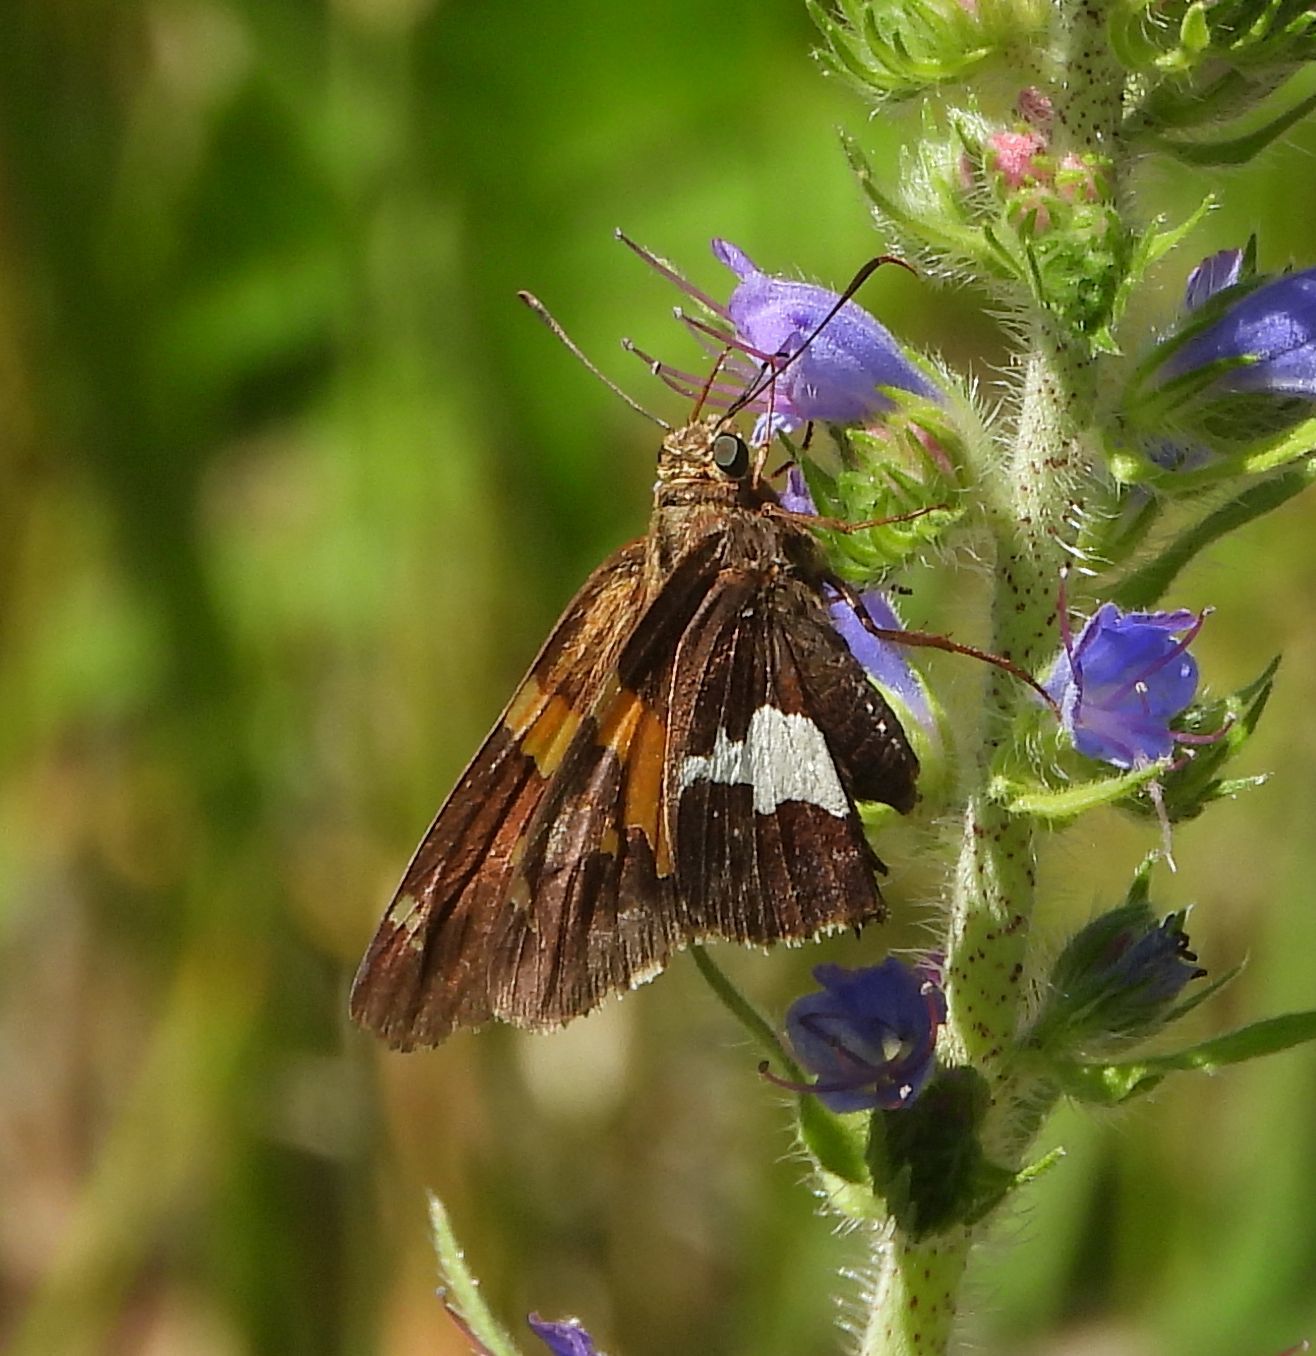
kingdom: Animalia
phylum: Arthropoda
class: Insecta
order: Lepidoptera
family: Hesperiidae
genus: Epargyreus
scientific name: Epargyreus clarus
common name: Silver-spotted skipper
